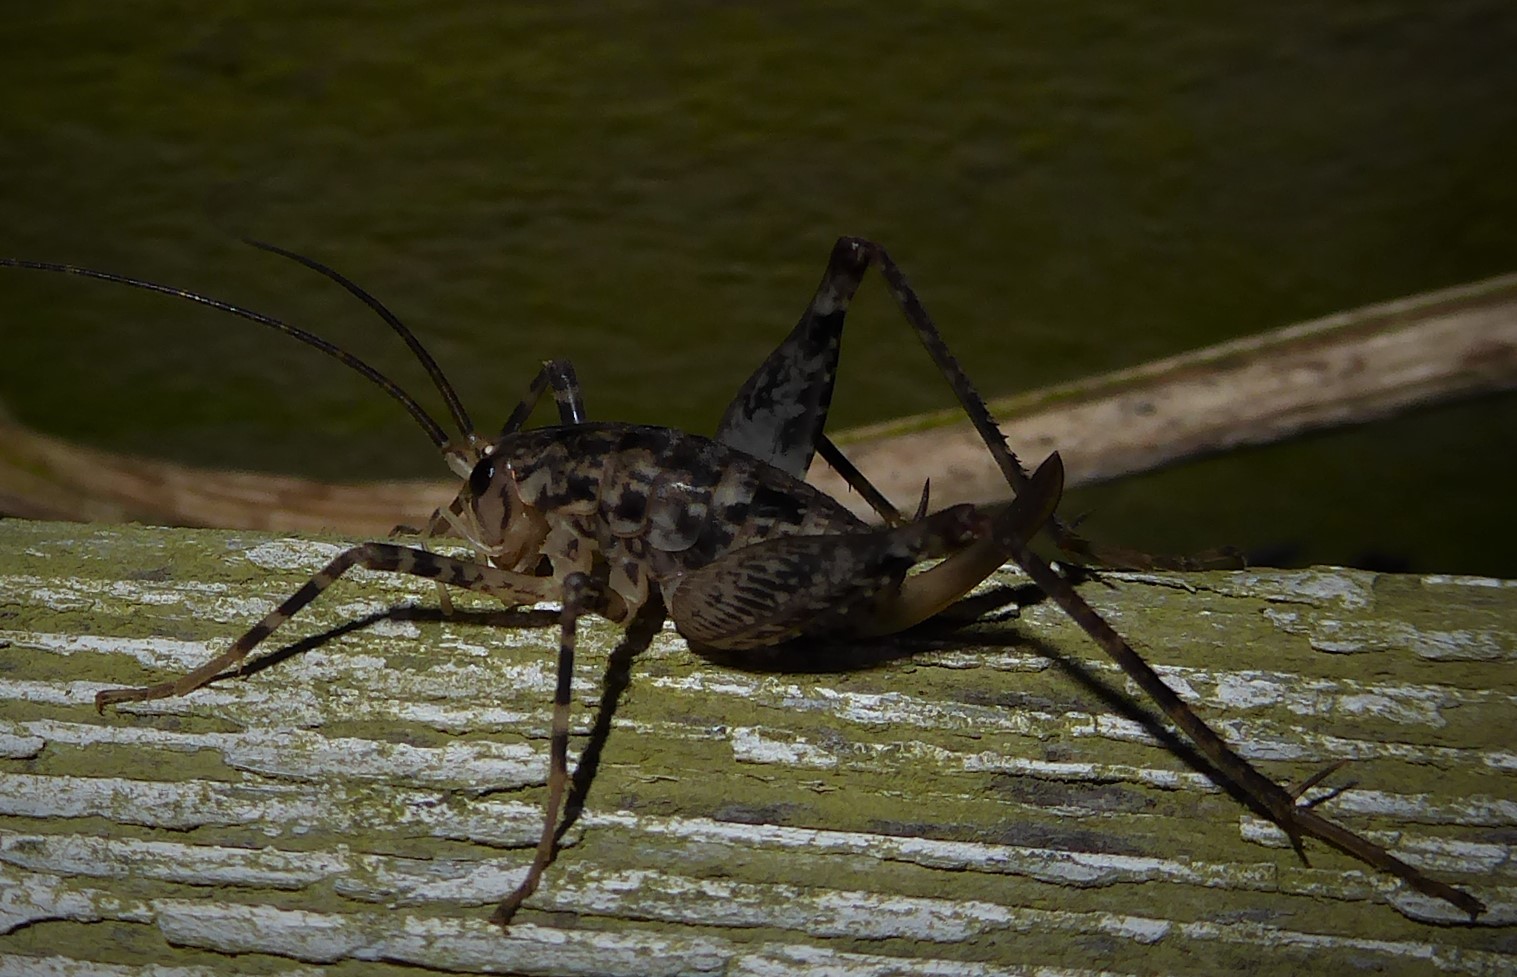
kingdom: Animalia
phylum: Arthropoda
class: Insecta
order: Orthoptera
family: Rhaphidophoridae
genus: Pleioplectron
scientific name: Pleioplectron simplex
